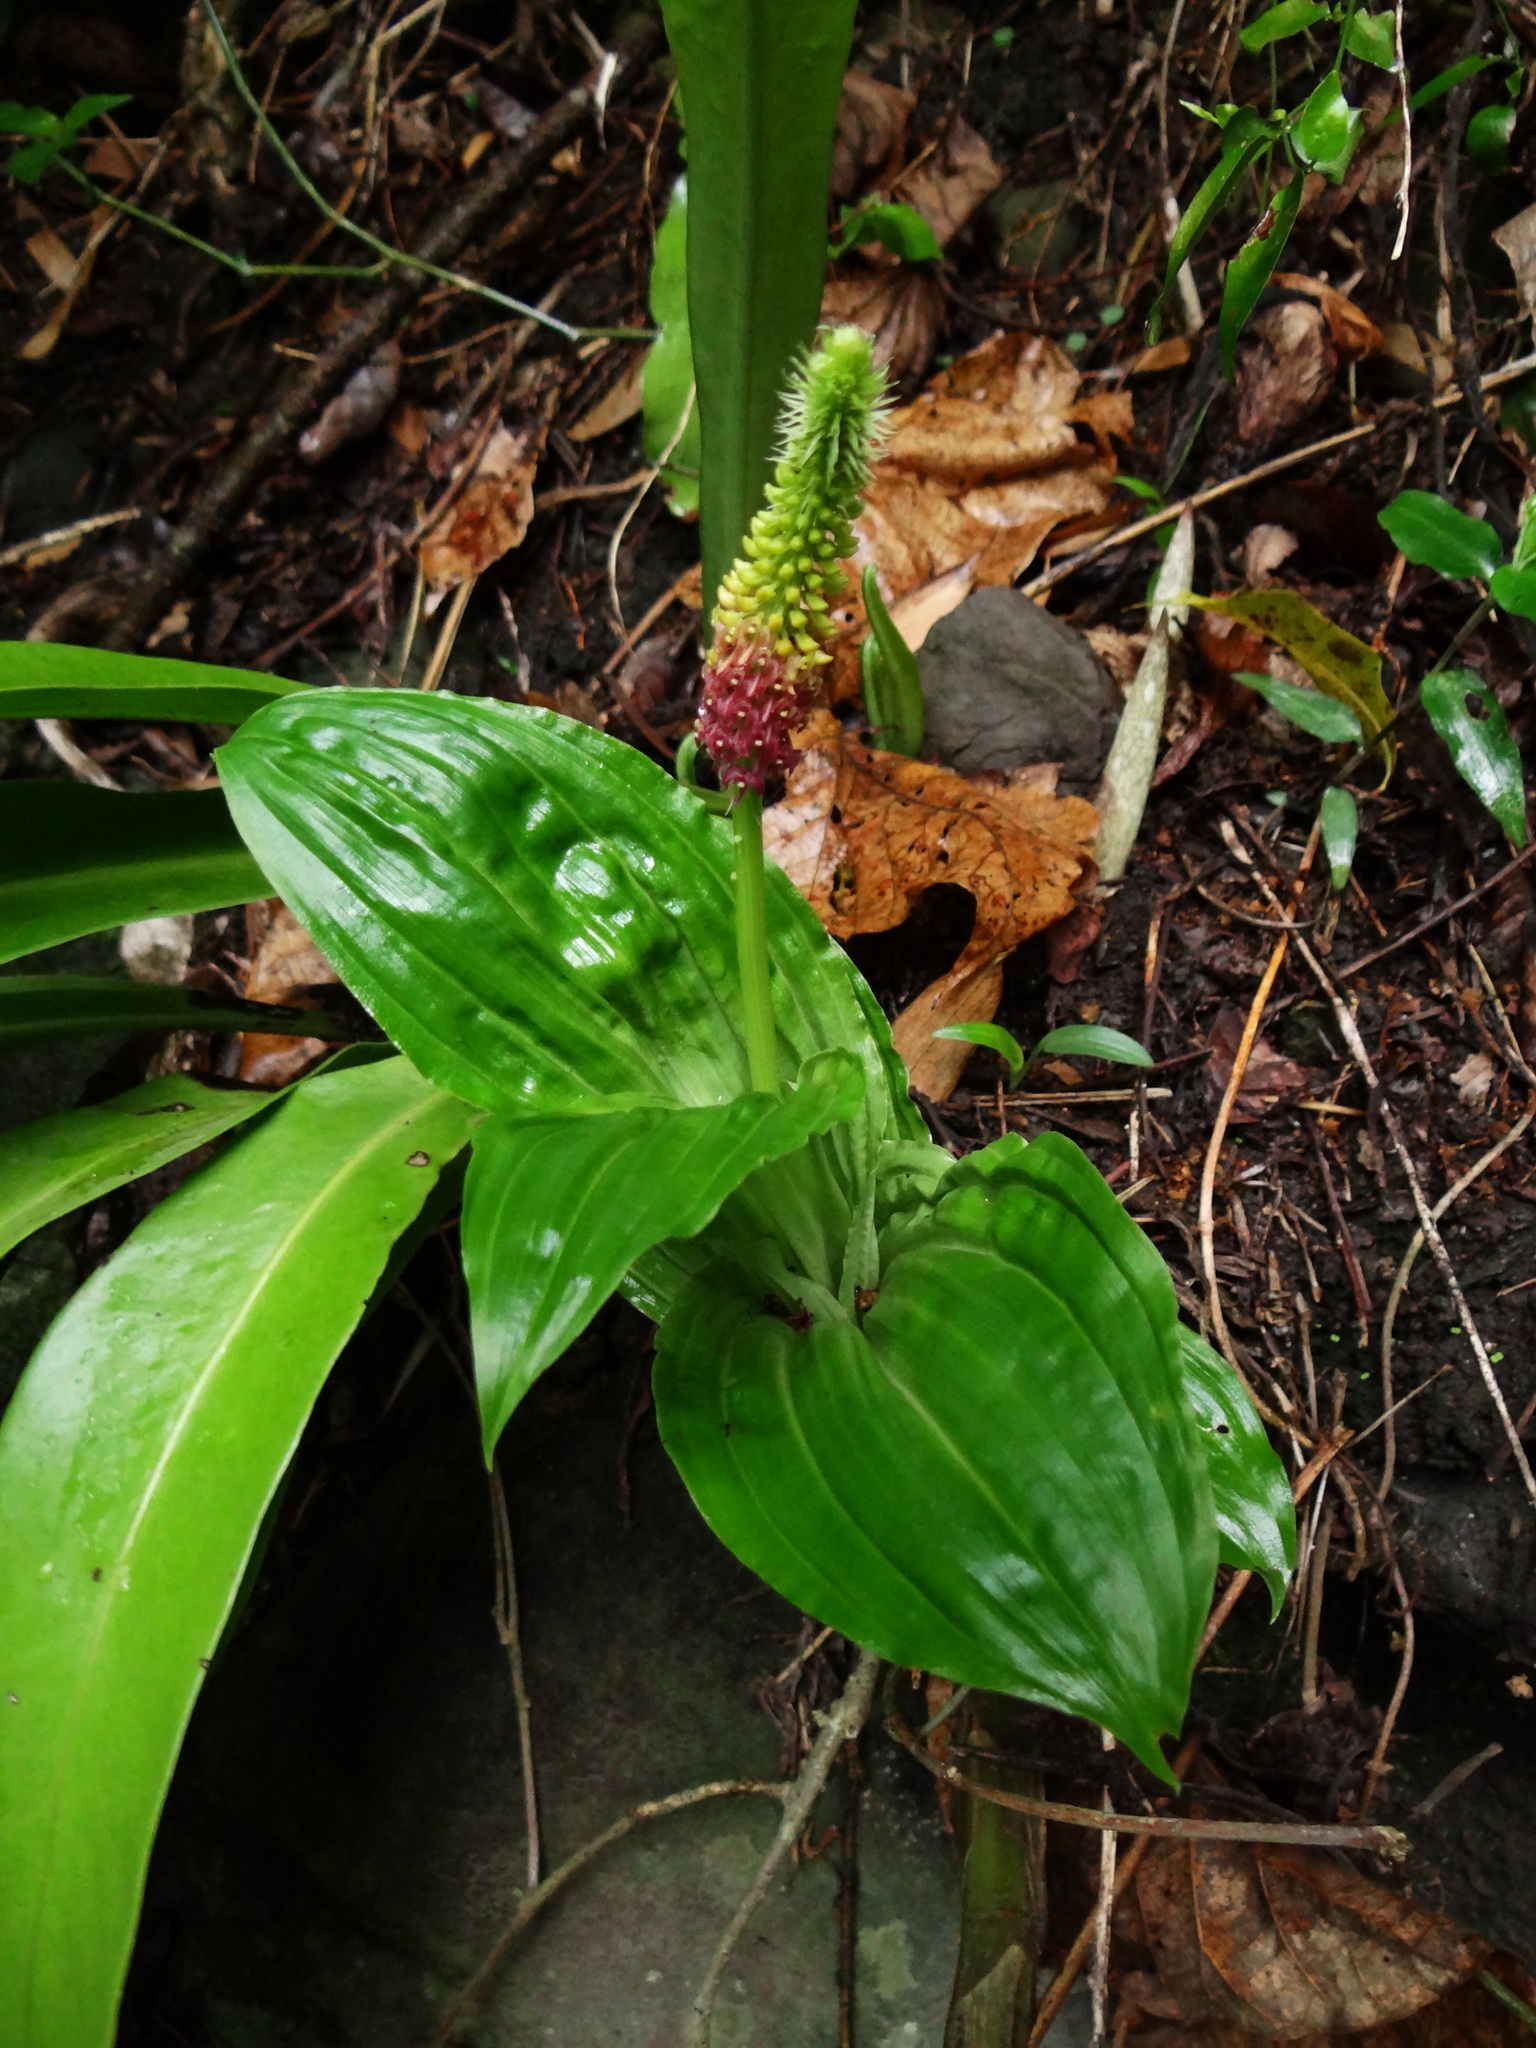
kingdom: Plantae
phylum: Tracheophyta
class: Liliopsida
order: Asparagales
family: Orchidaceae
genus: Dienia
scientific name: Dienia ophrydis
